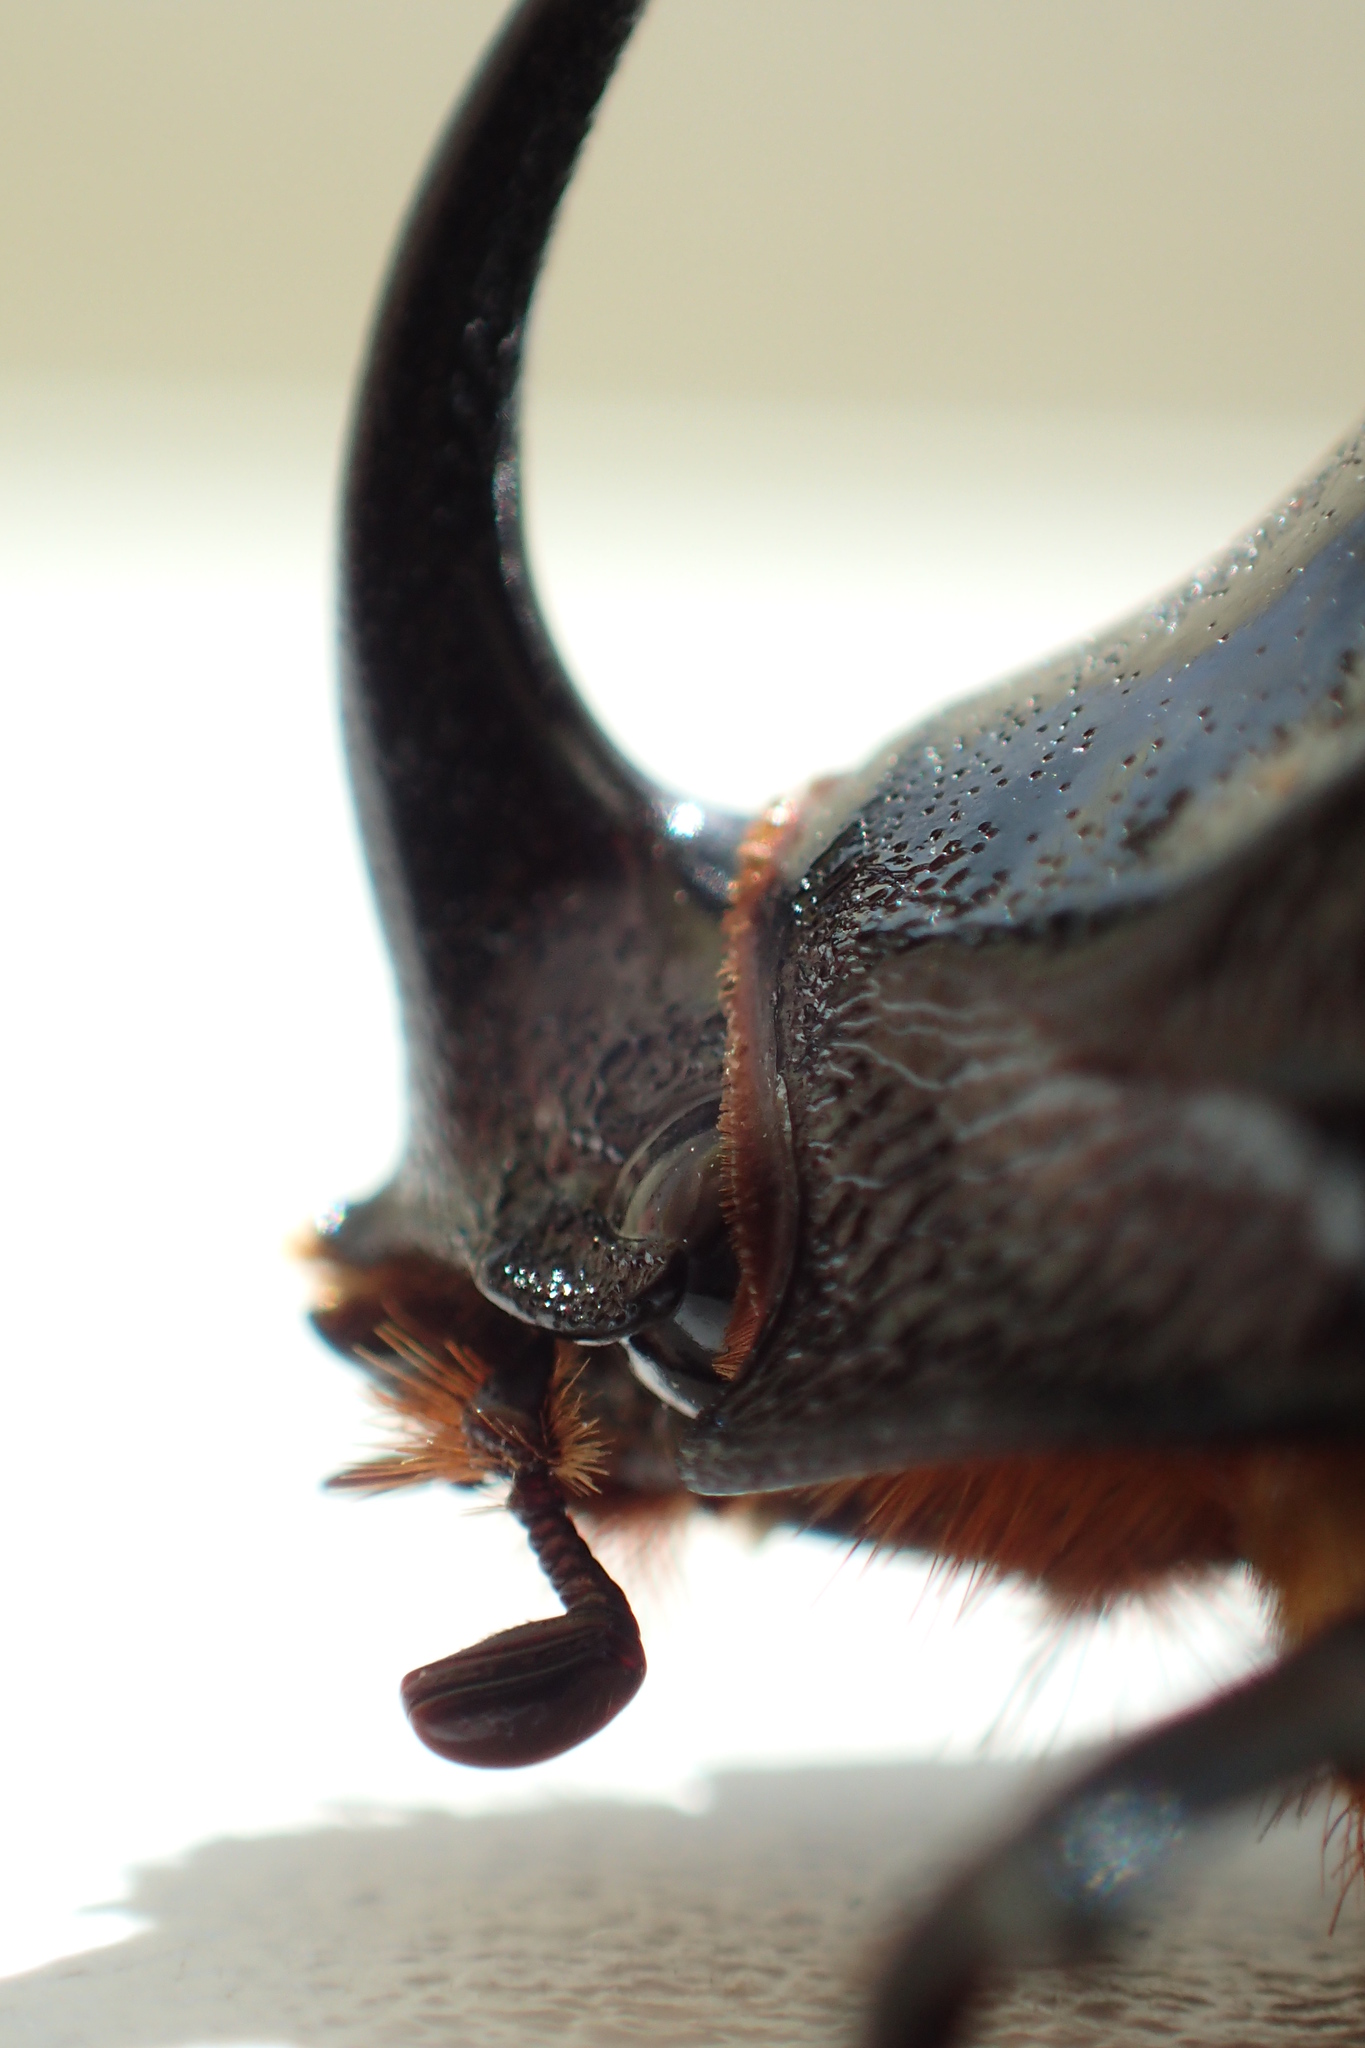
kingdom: Animalia
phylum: Arthropoda
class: Insecta
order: Coleoptera
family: Scarabaeidae
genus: Oryctes
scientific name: Oryctes nasicornis
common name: European rhinoceros beetle
